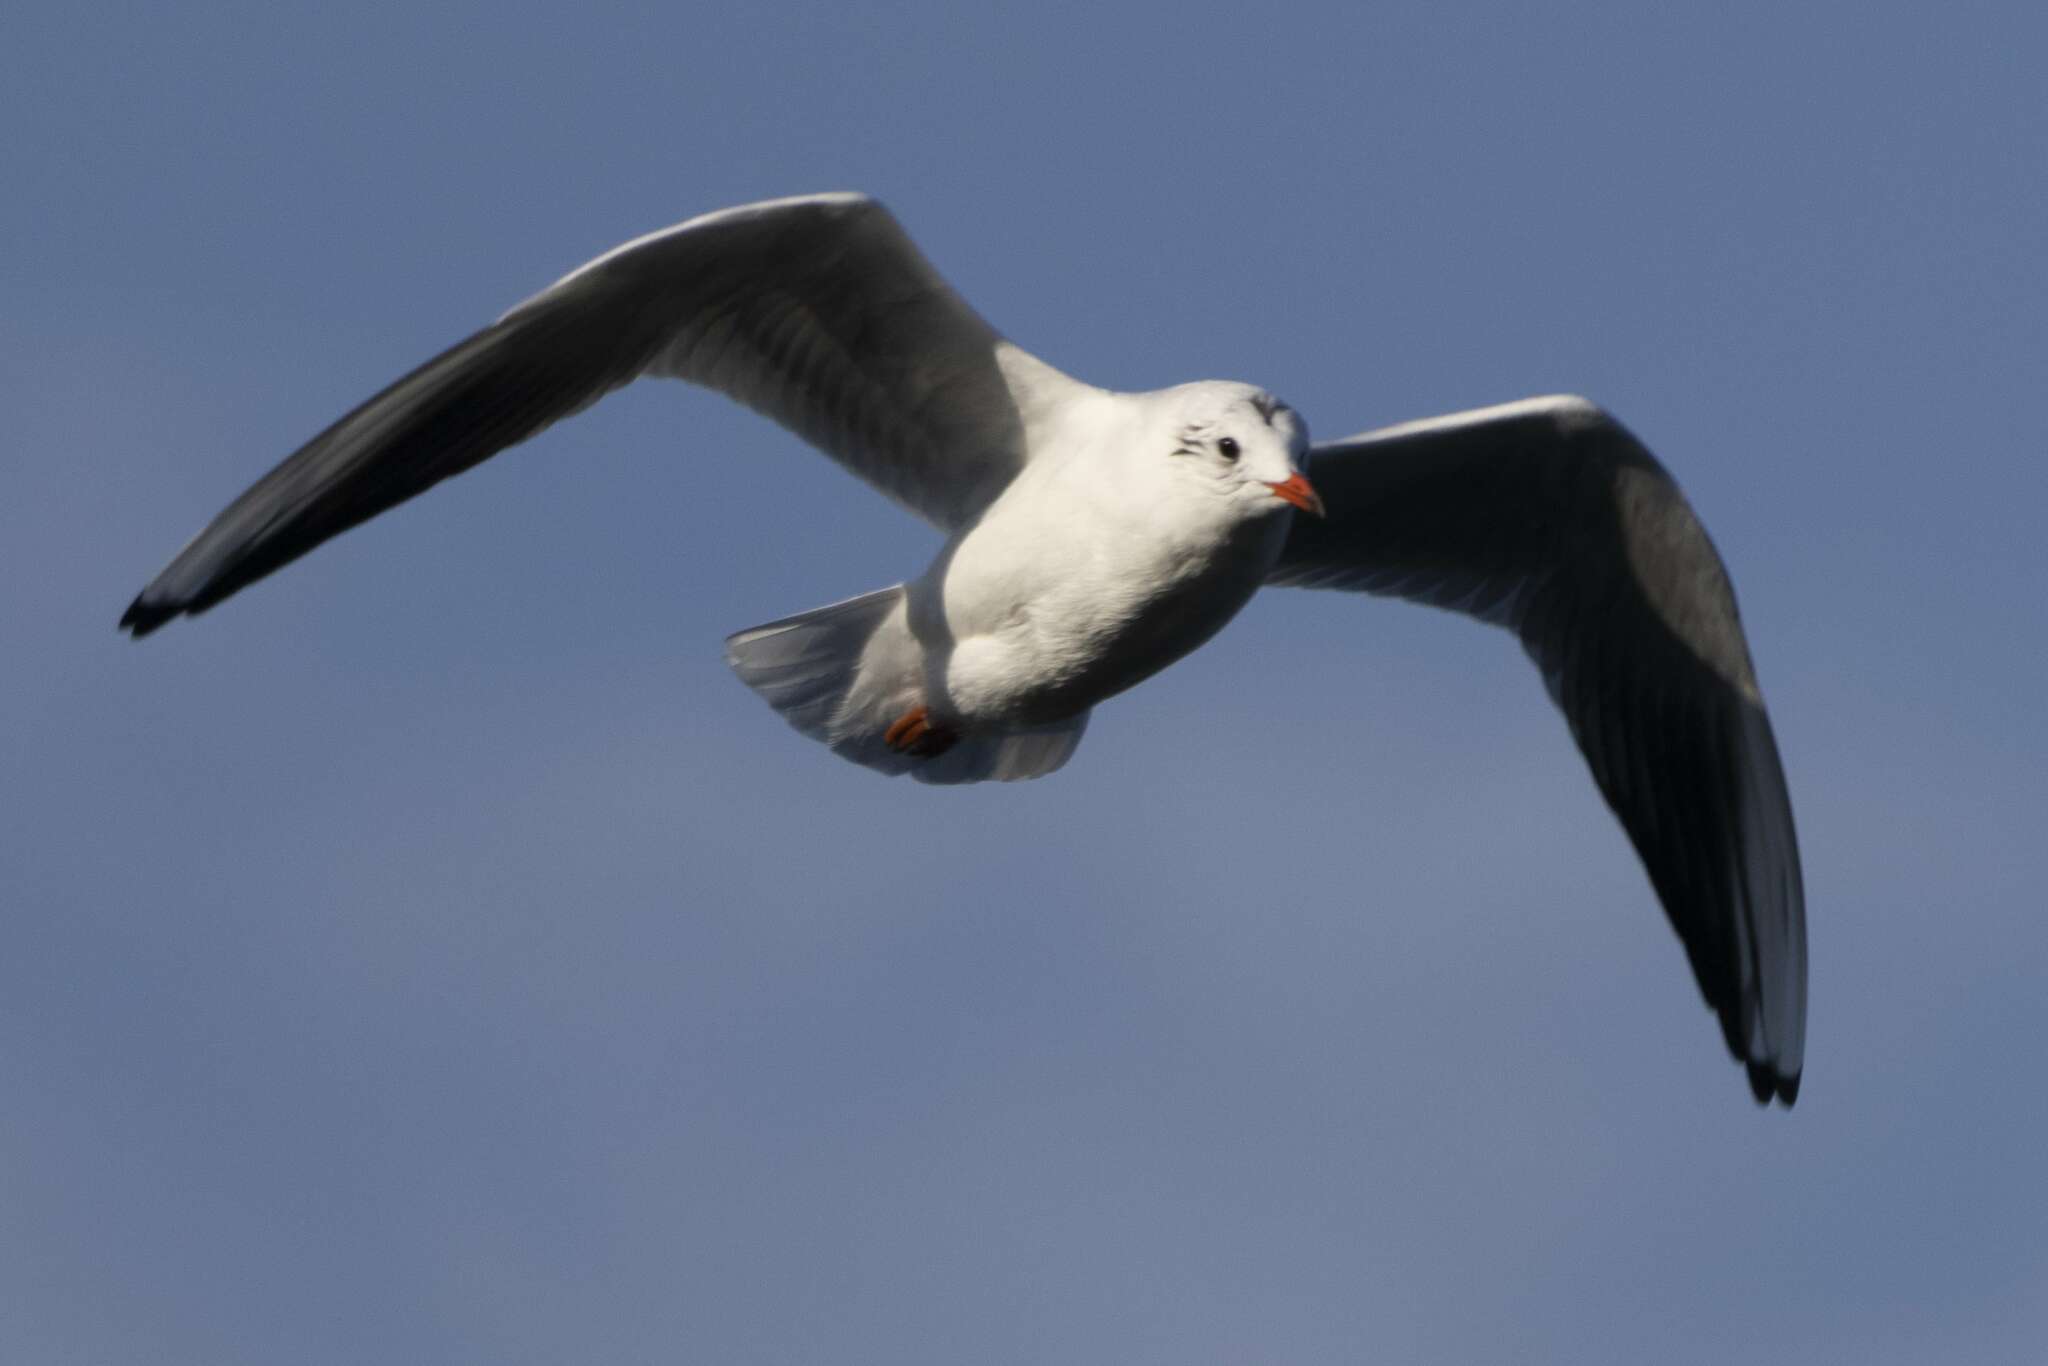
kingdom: Animalia
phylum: Chordata
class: Aves
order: Charadriiformes
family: Laridae
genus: Chroicocephalus
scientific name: Chroicocephalus ridibundus
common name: Black-headed gull
